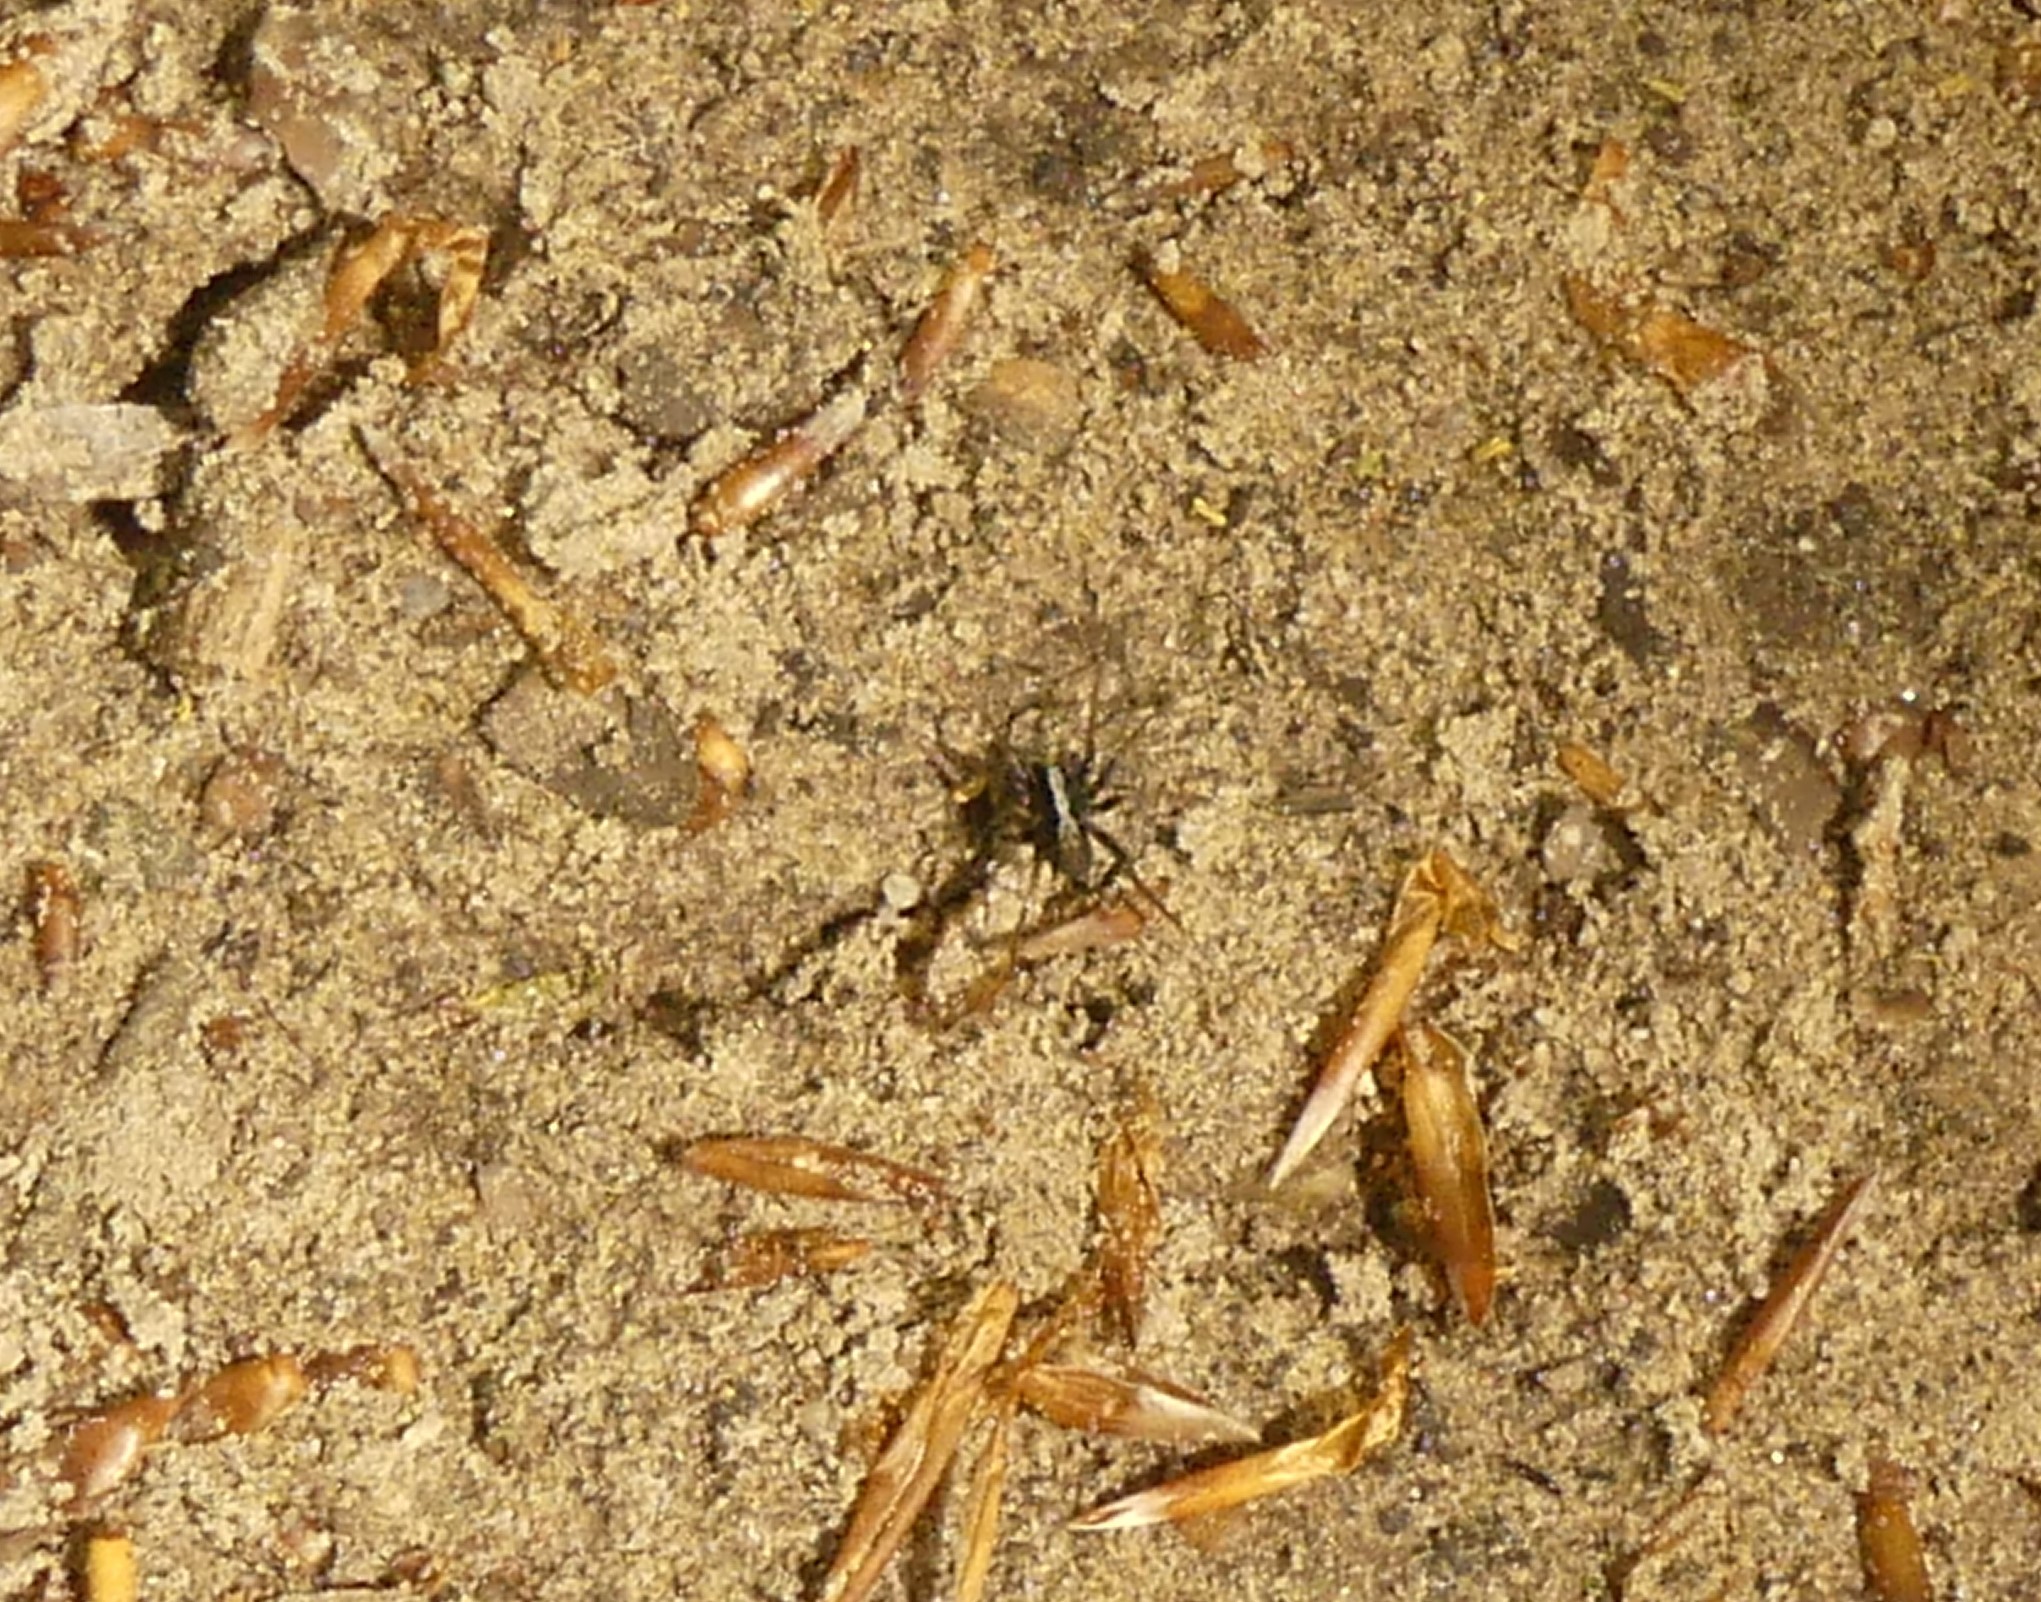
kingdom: Animalia
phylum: Arthropoda
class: Arachnida
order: Araneae
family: Lycosidae
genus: Pardosa
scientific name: Pardosa
